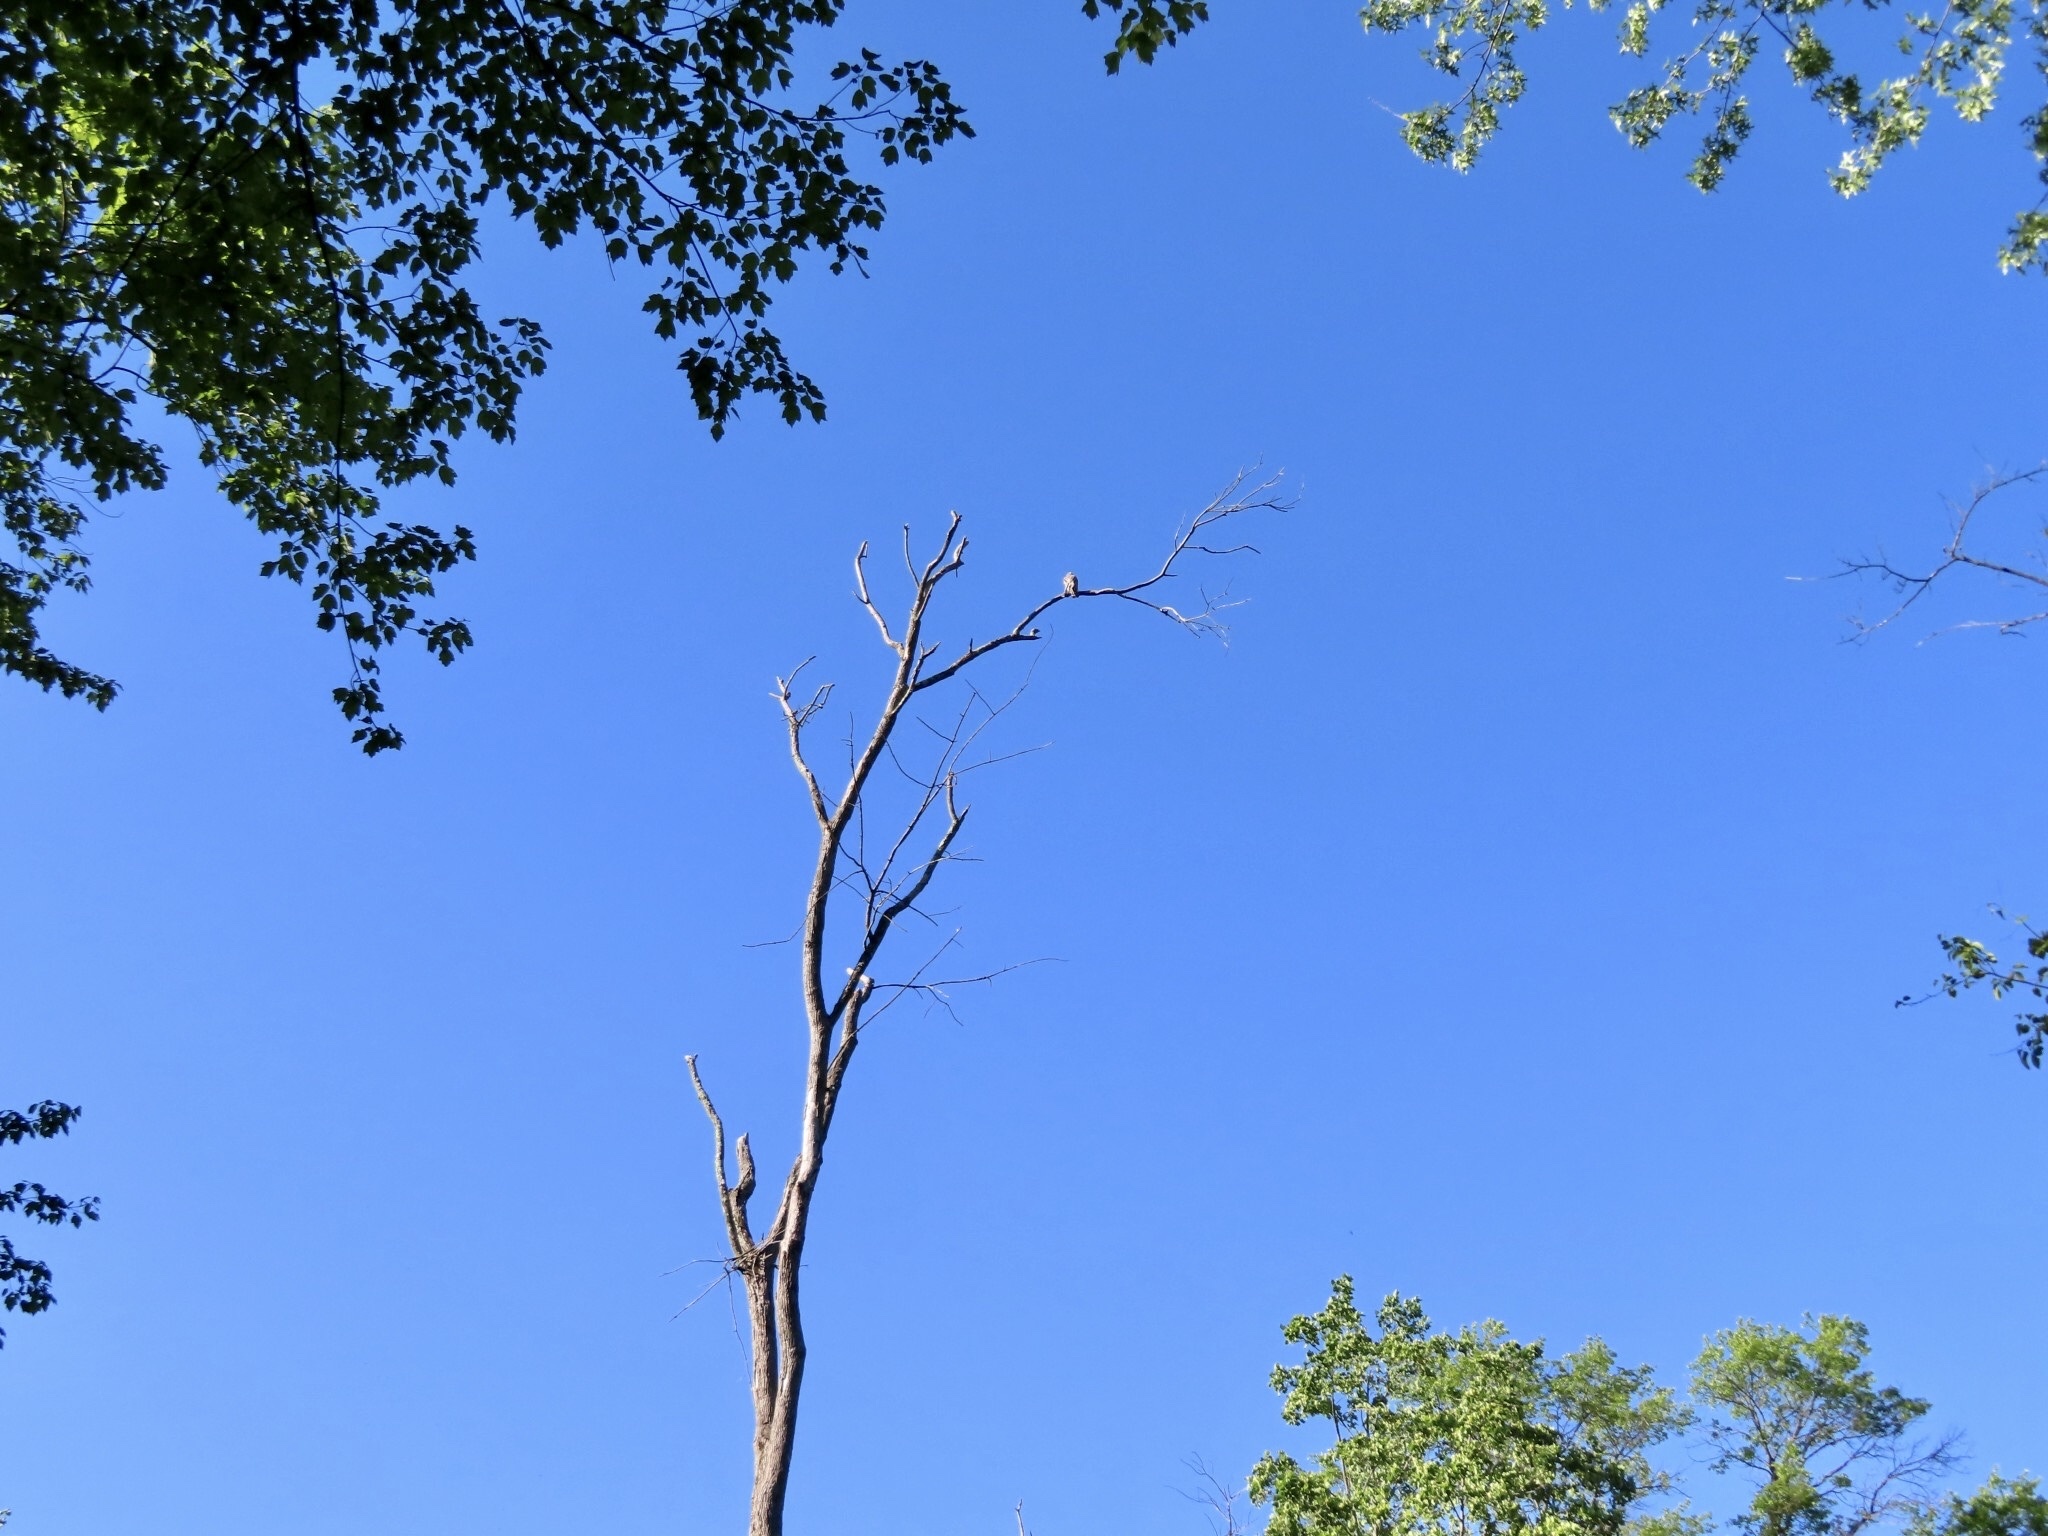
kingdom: Animalia
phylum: Chordata
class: Aves
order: Accipitriformes
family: Accipitridae
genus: Buteo
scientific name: Buteo lineatus
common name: Red-shouldered hawk
